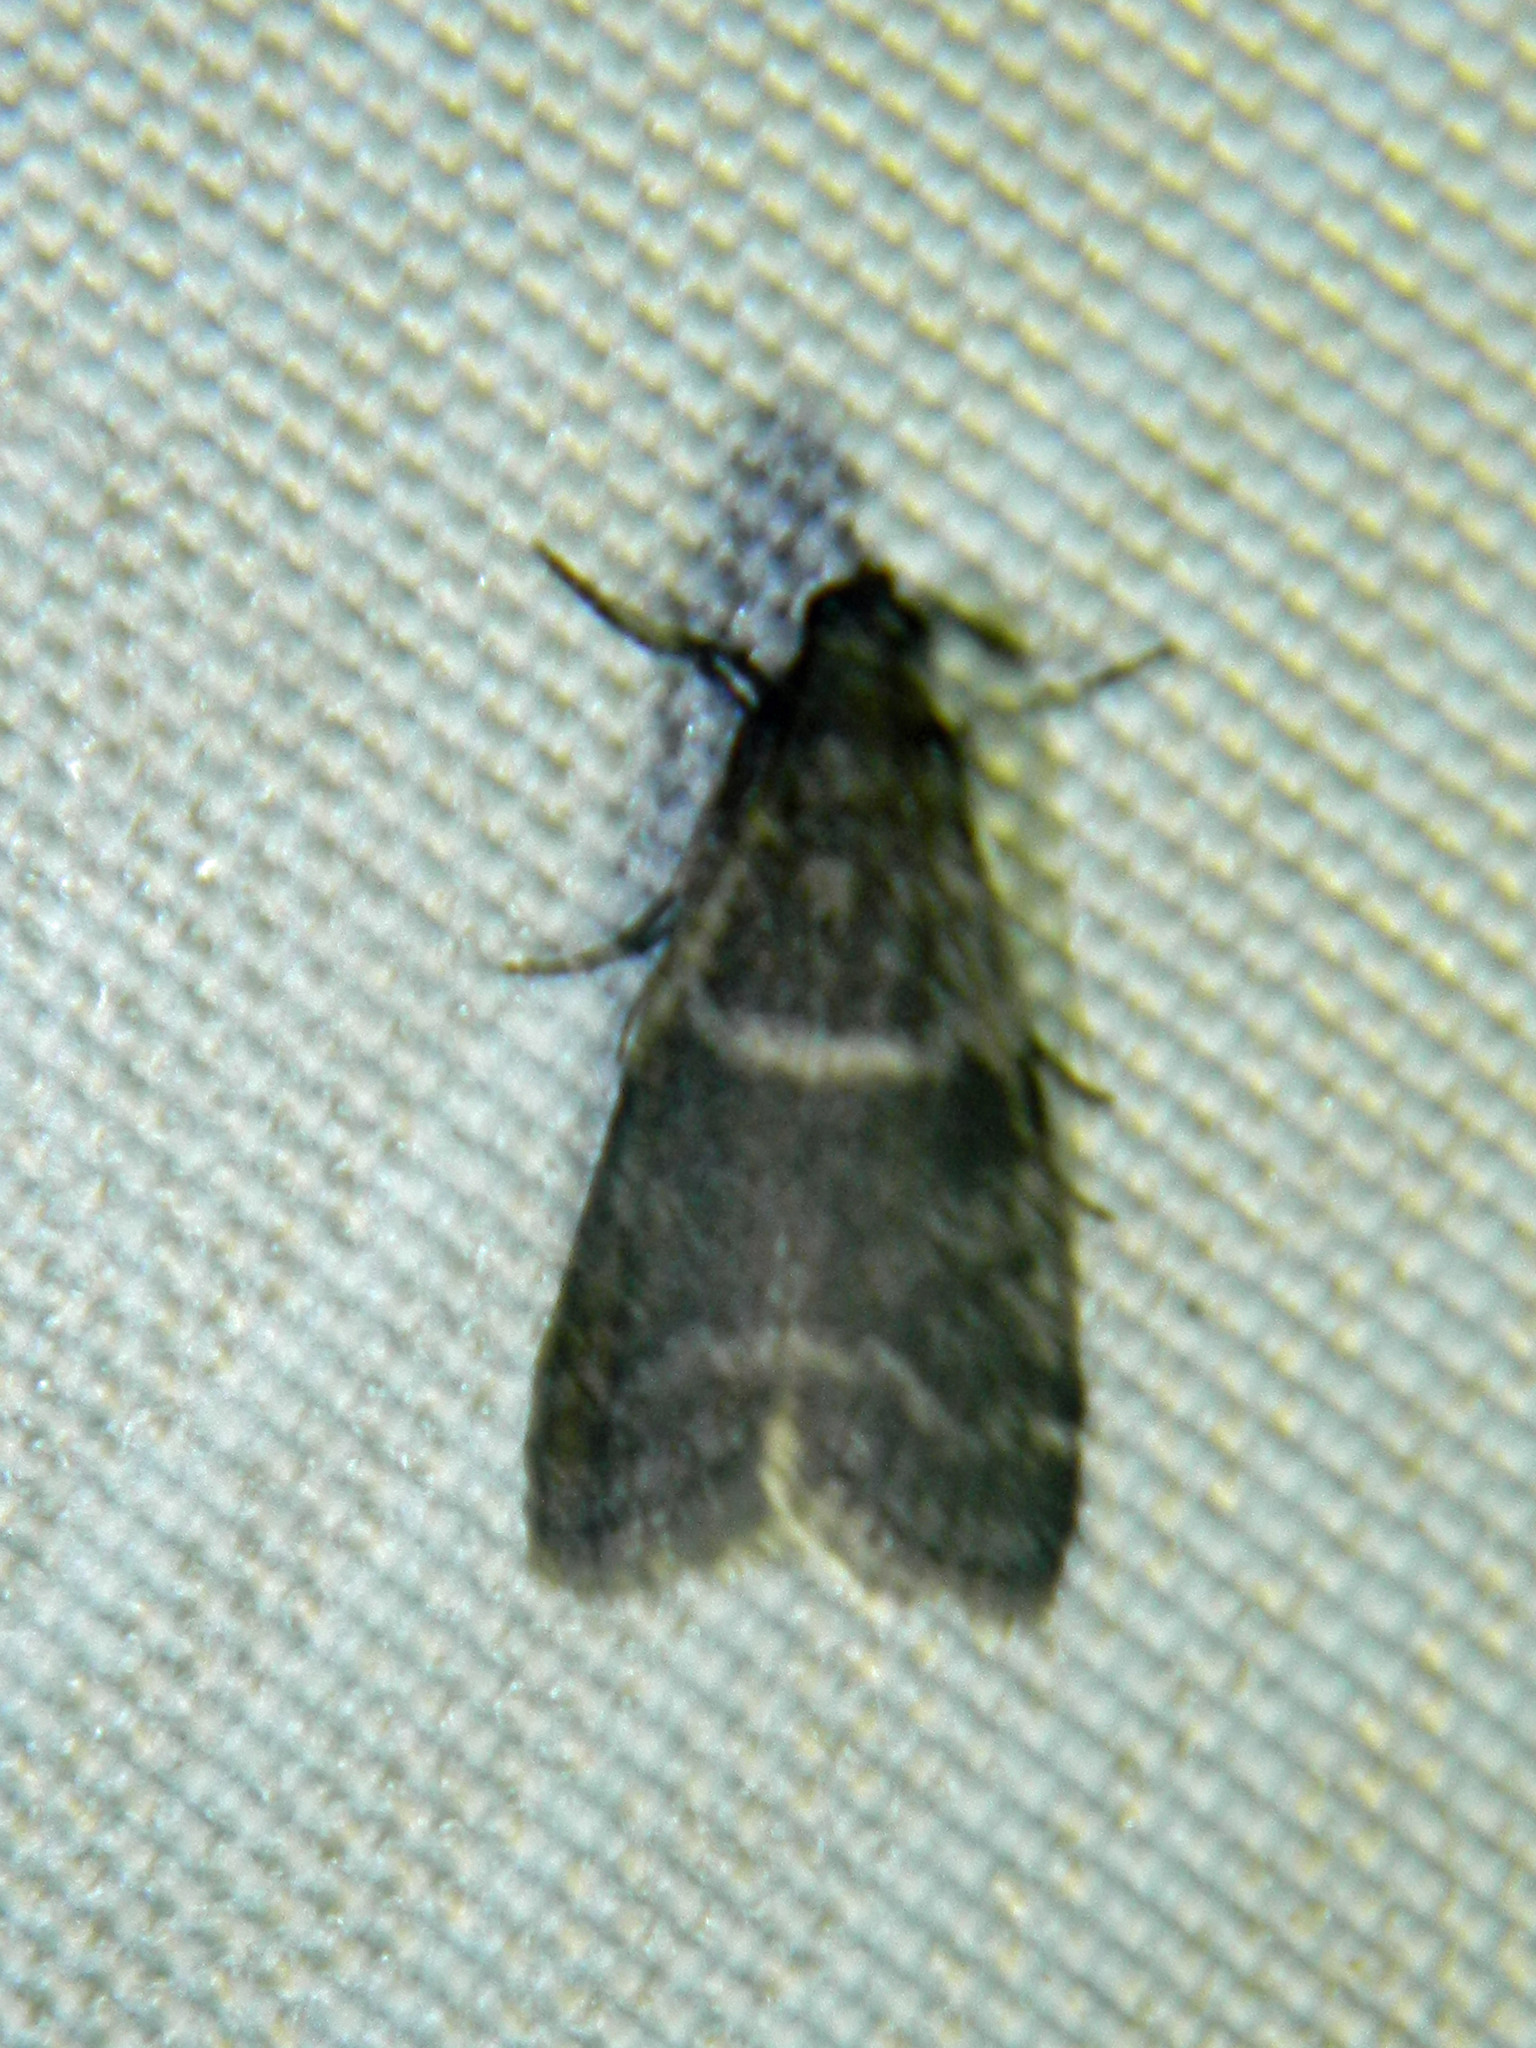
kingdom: Animalia
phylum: Arthropoda
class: Insecta
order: Lepidoptera
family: Pyralidae
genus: Apomyelois
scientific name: Apomyelois bistriatella
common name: Heath knot-horn
